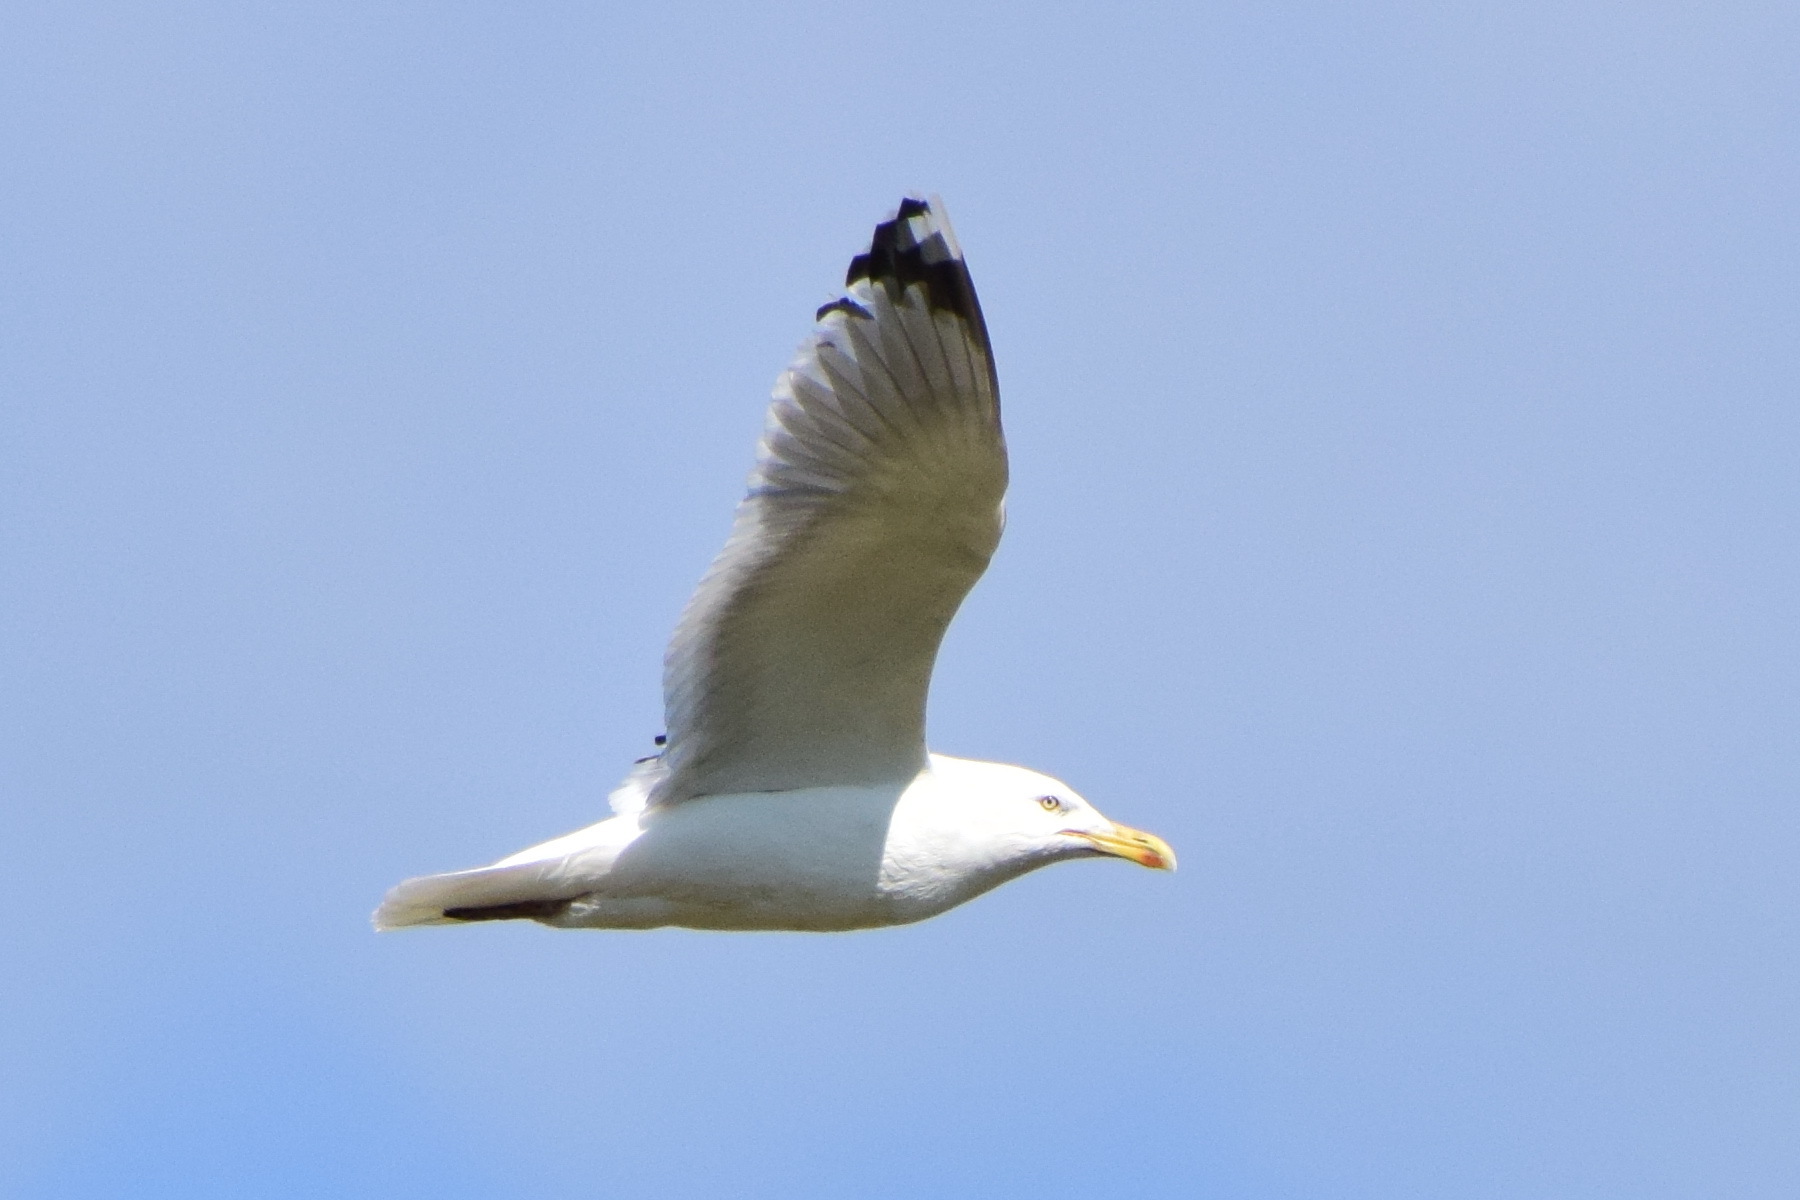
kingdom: Animalia
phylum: Chordata
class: Aves
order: Charadriiformes
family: Laridae
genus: Larus
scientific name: Larus argentatus
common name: Herring gull
